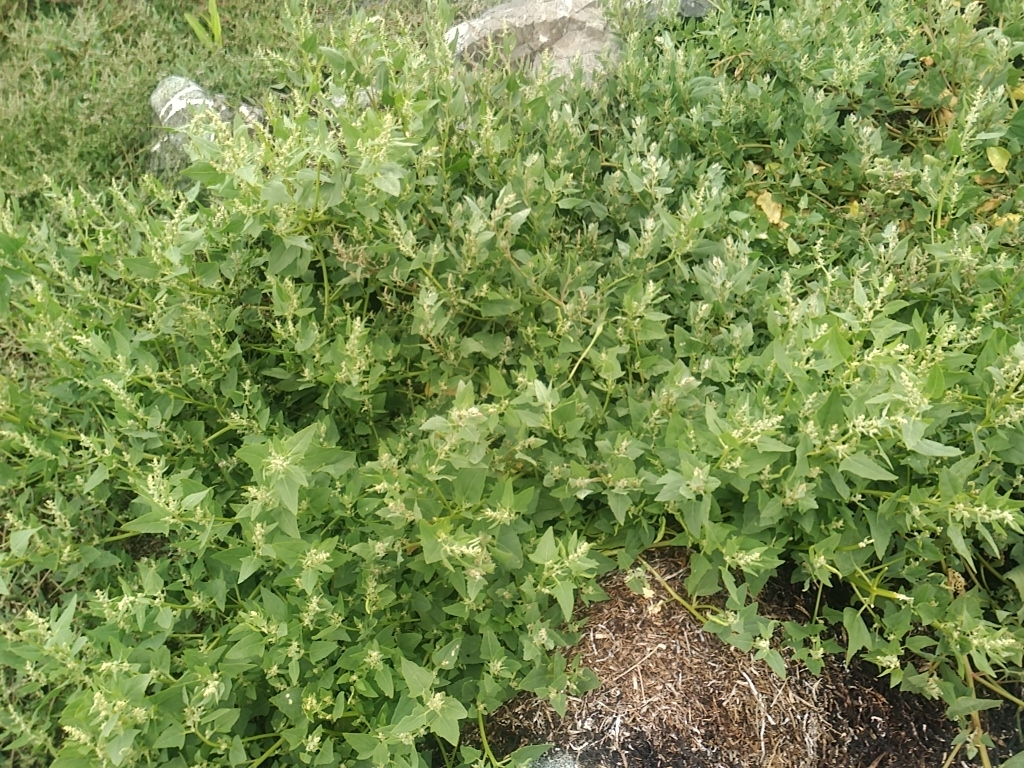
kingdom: Plantae
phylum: Tracheophyta
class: Magnoliopsida
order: Caryophyllales
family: Amaranthaceae
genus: Atriplex
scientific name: Atriplex prostrata
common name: Spear-leaved orache
